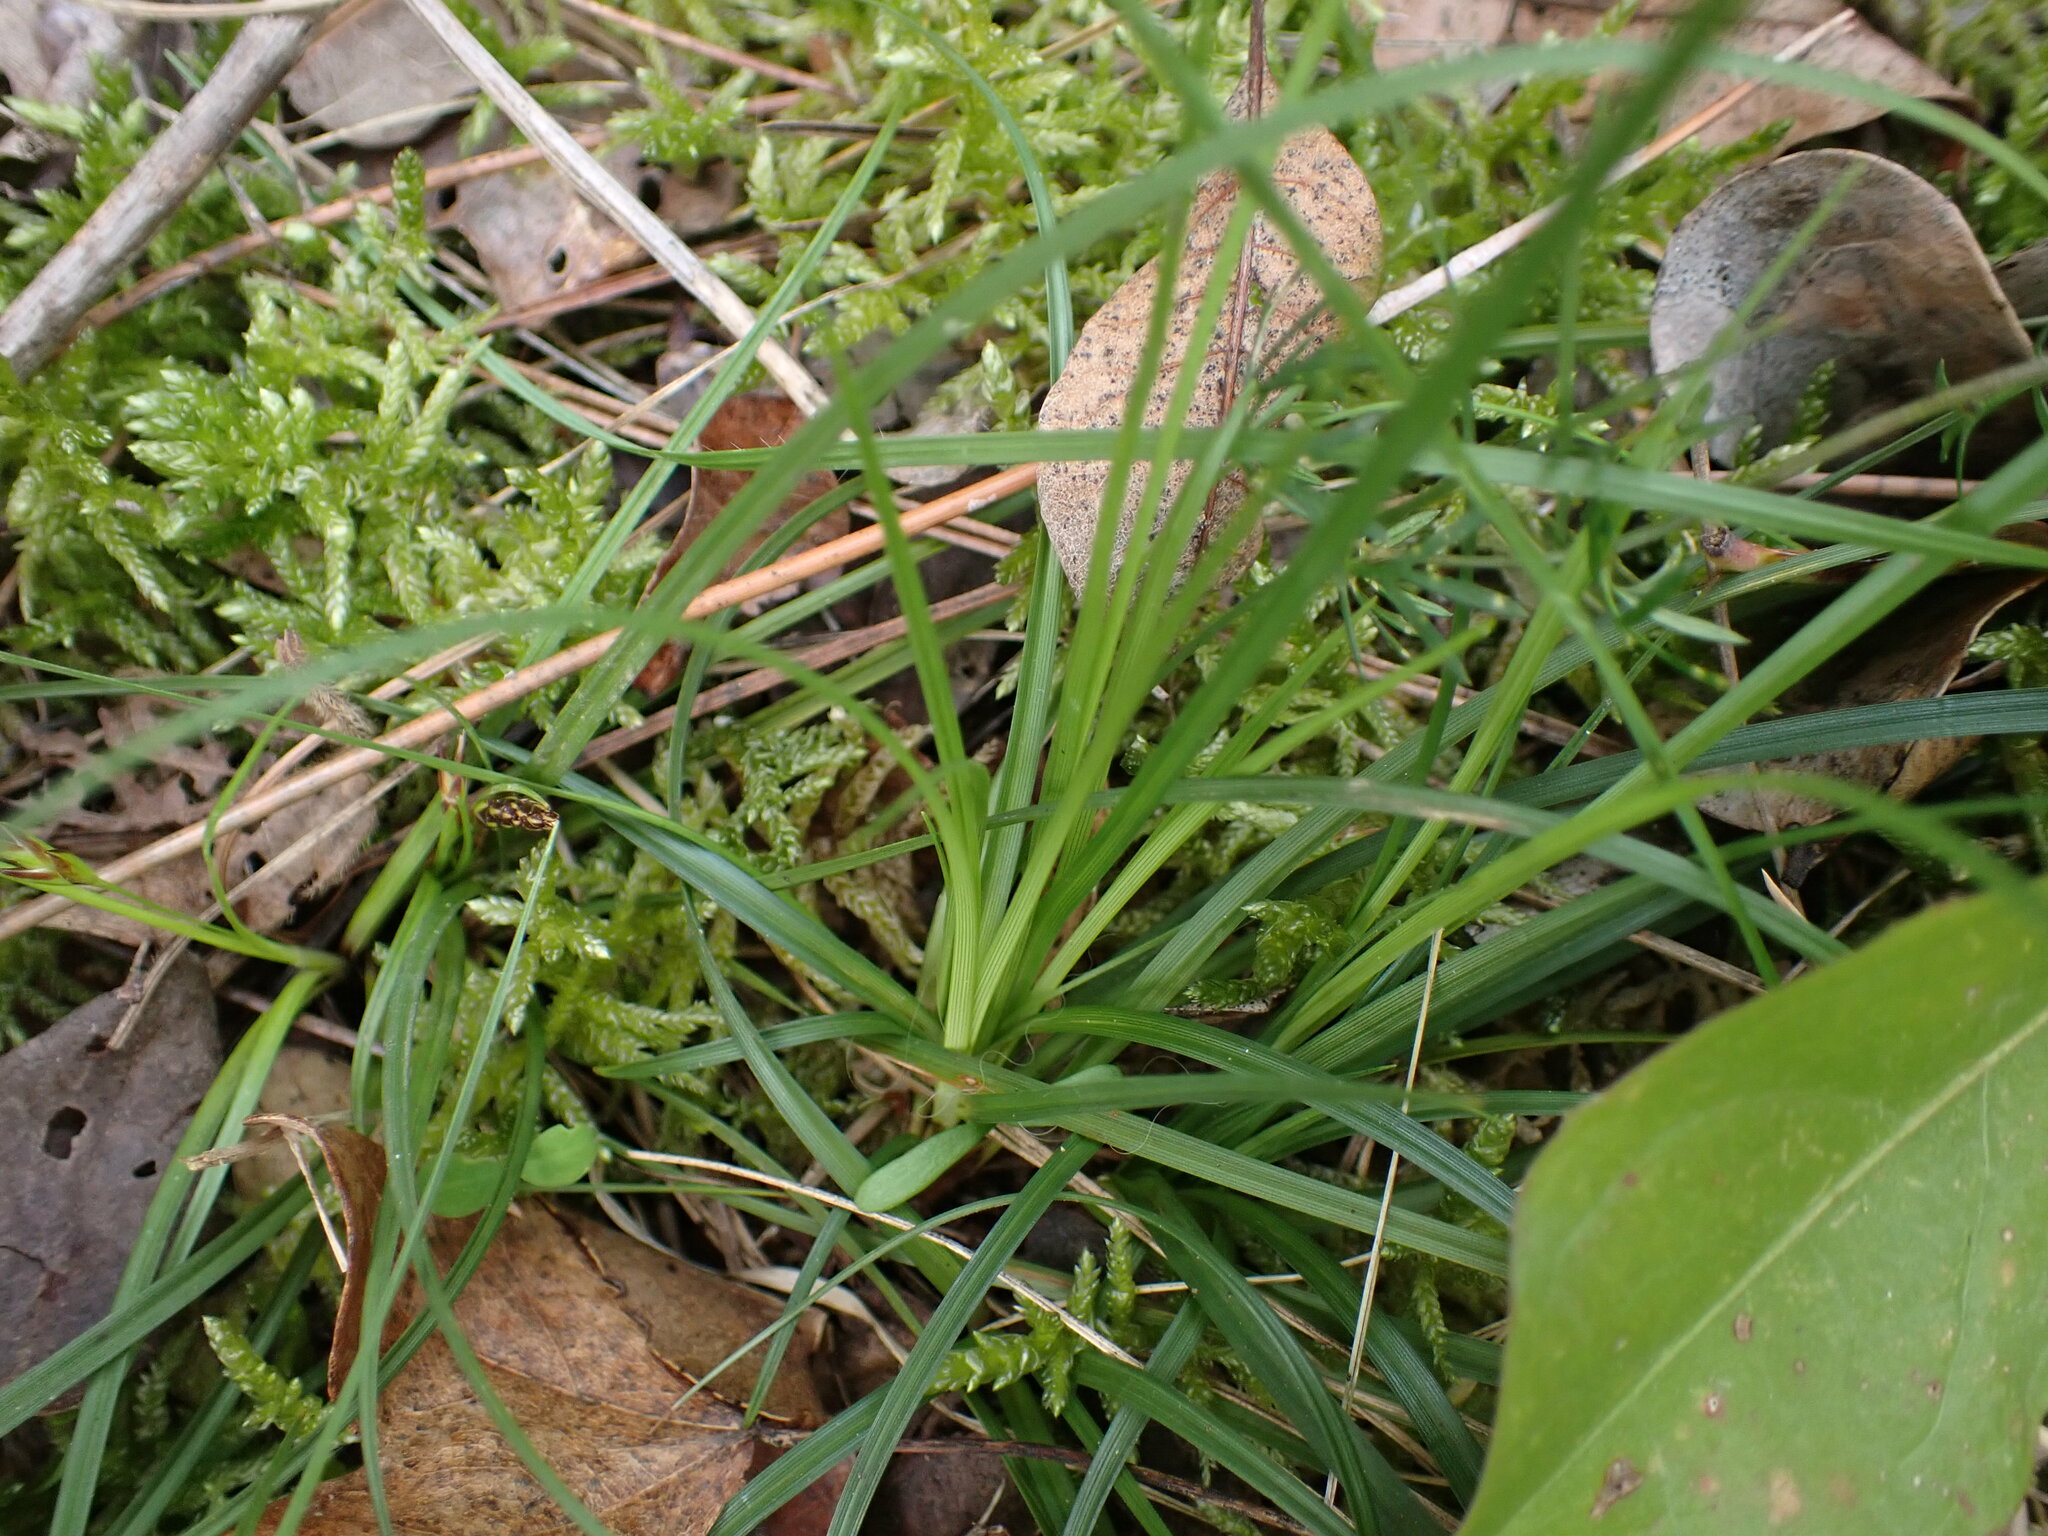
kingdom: Plantae
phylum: Tracheophyta
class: Liliopsida
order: Poales
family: Cyperaceae
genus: Carex
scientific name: Carex halleriana
